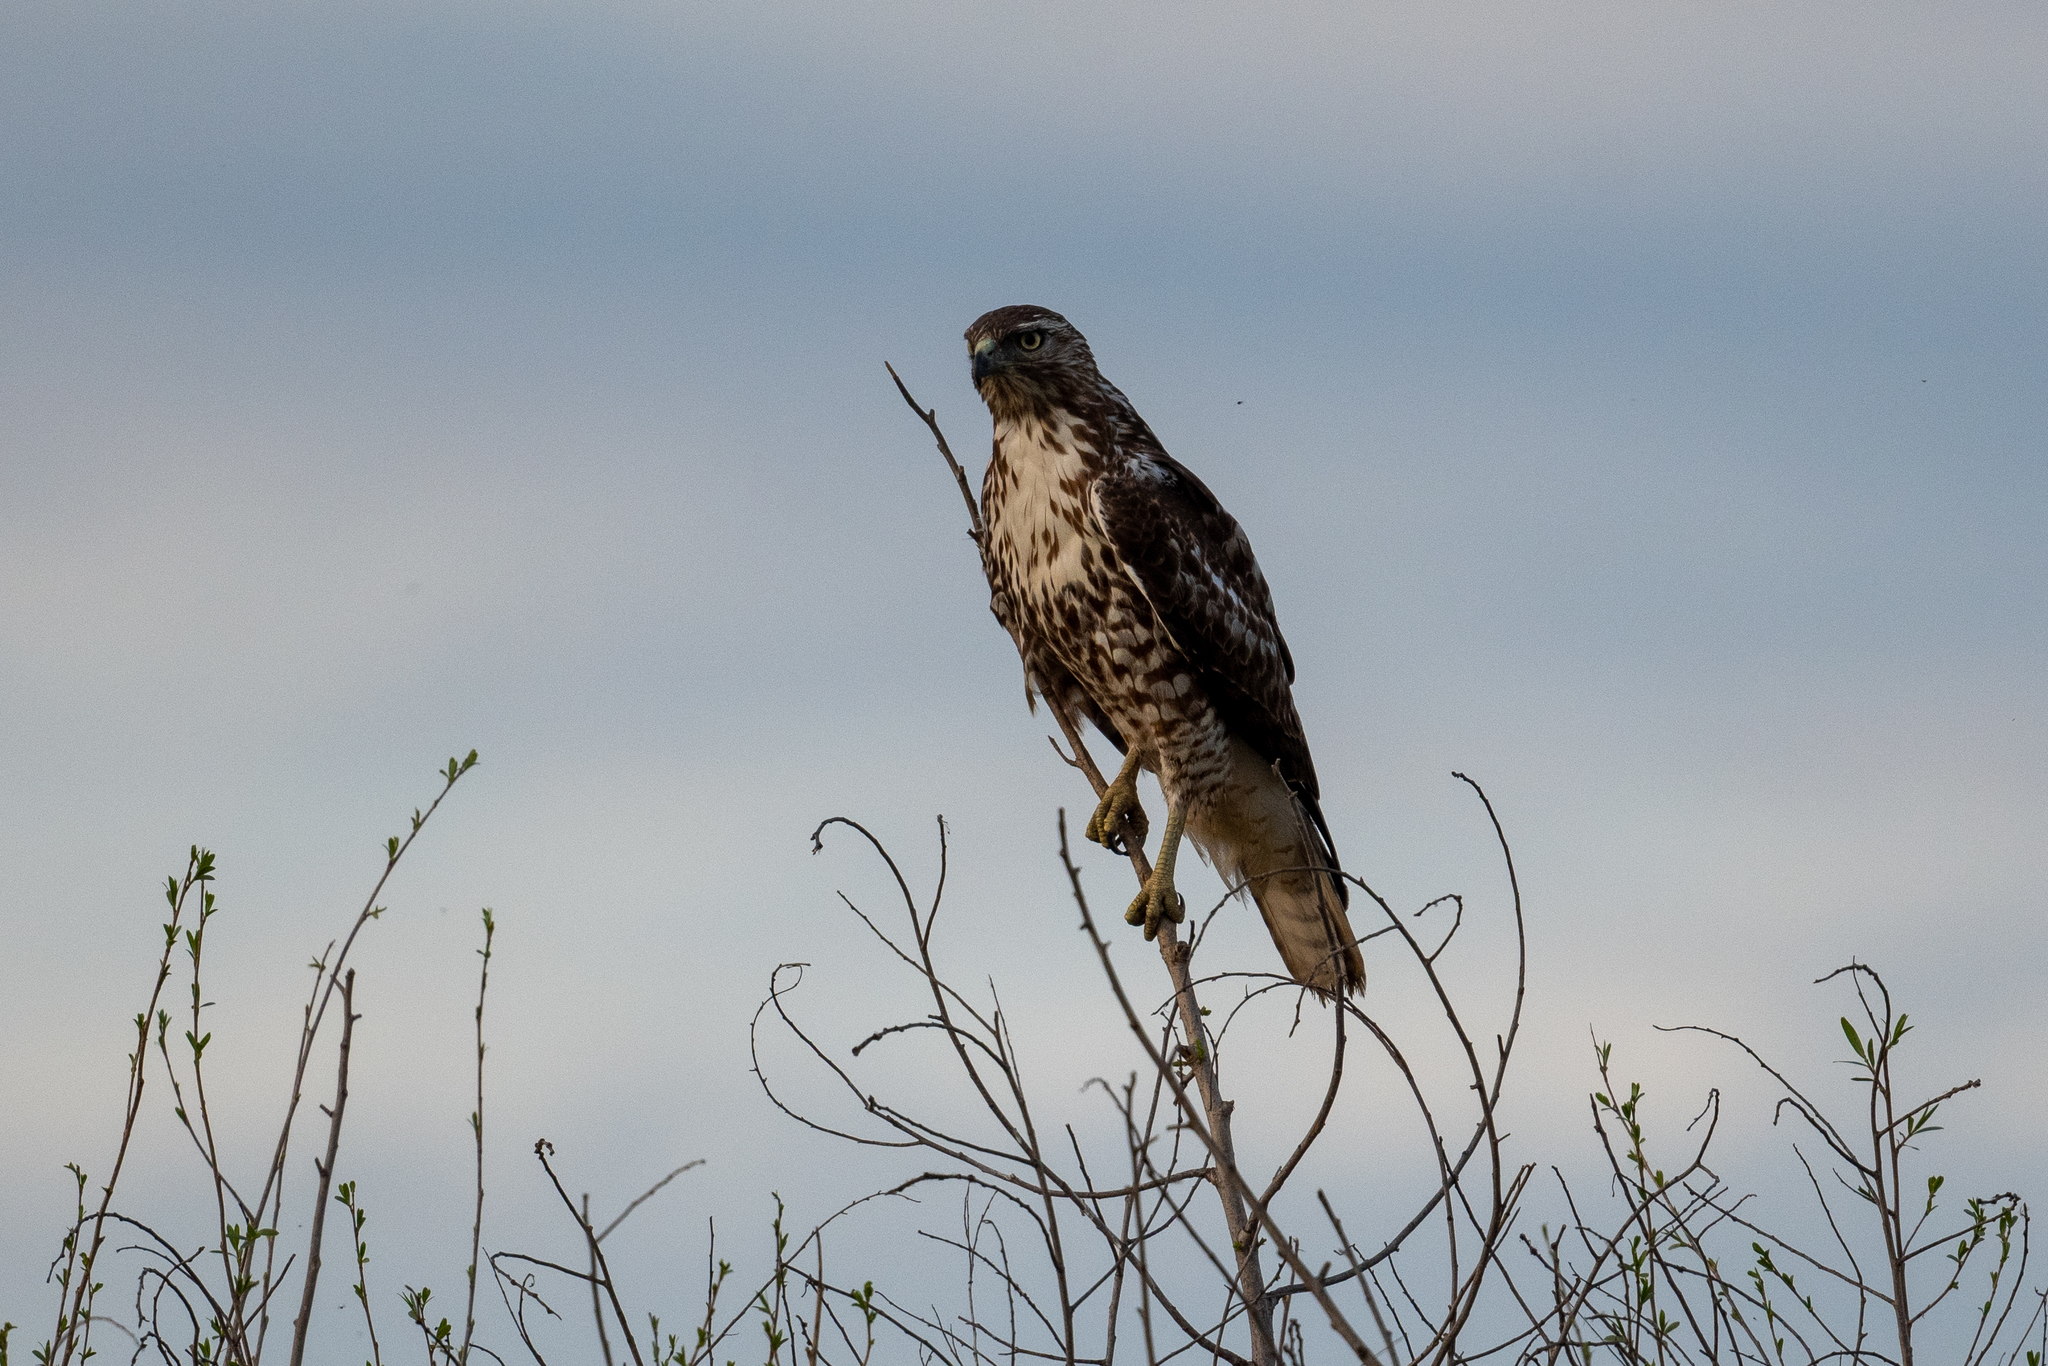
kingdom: Animalia
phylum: Chordata
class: Aves
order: Accipitriformes
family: Accipitridae
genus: Buteo
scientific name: Buteo jamaicensis
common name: Red-tailed hawk
